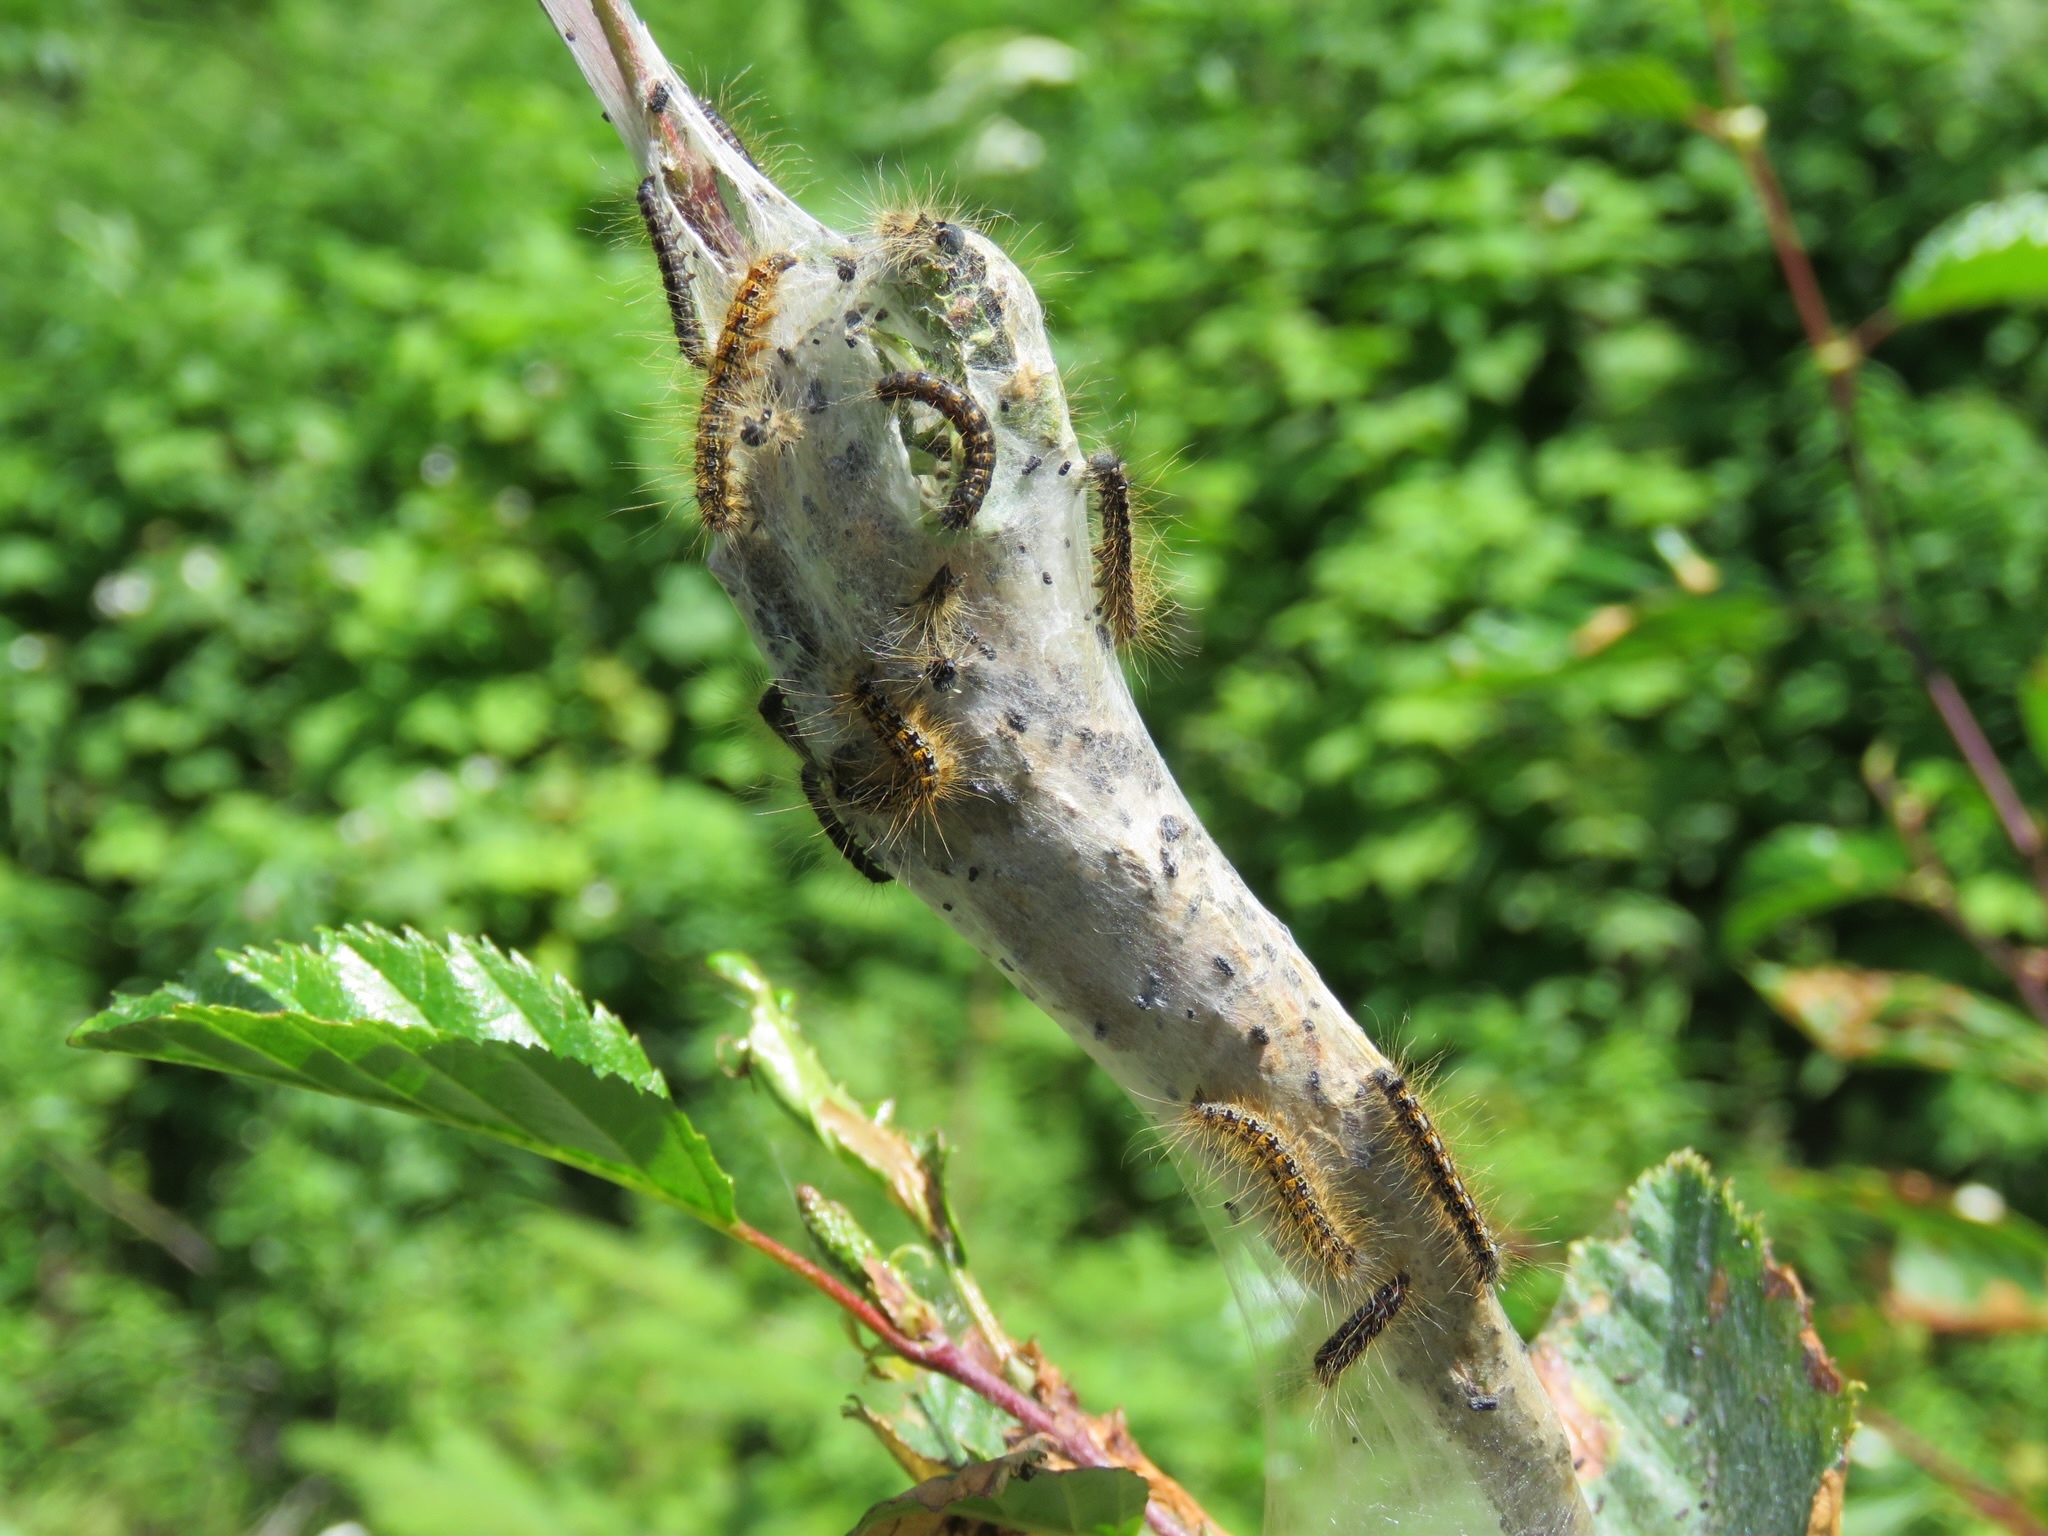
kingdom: Animalia
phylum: Arthropoda
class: Insecta
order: Lepidoptera
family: Lasiocampidae
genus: Malacosoma
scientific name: Malacosoma californica
